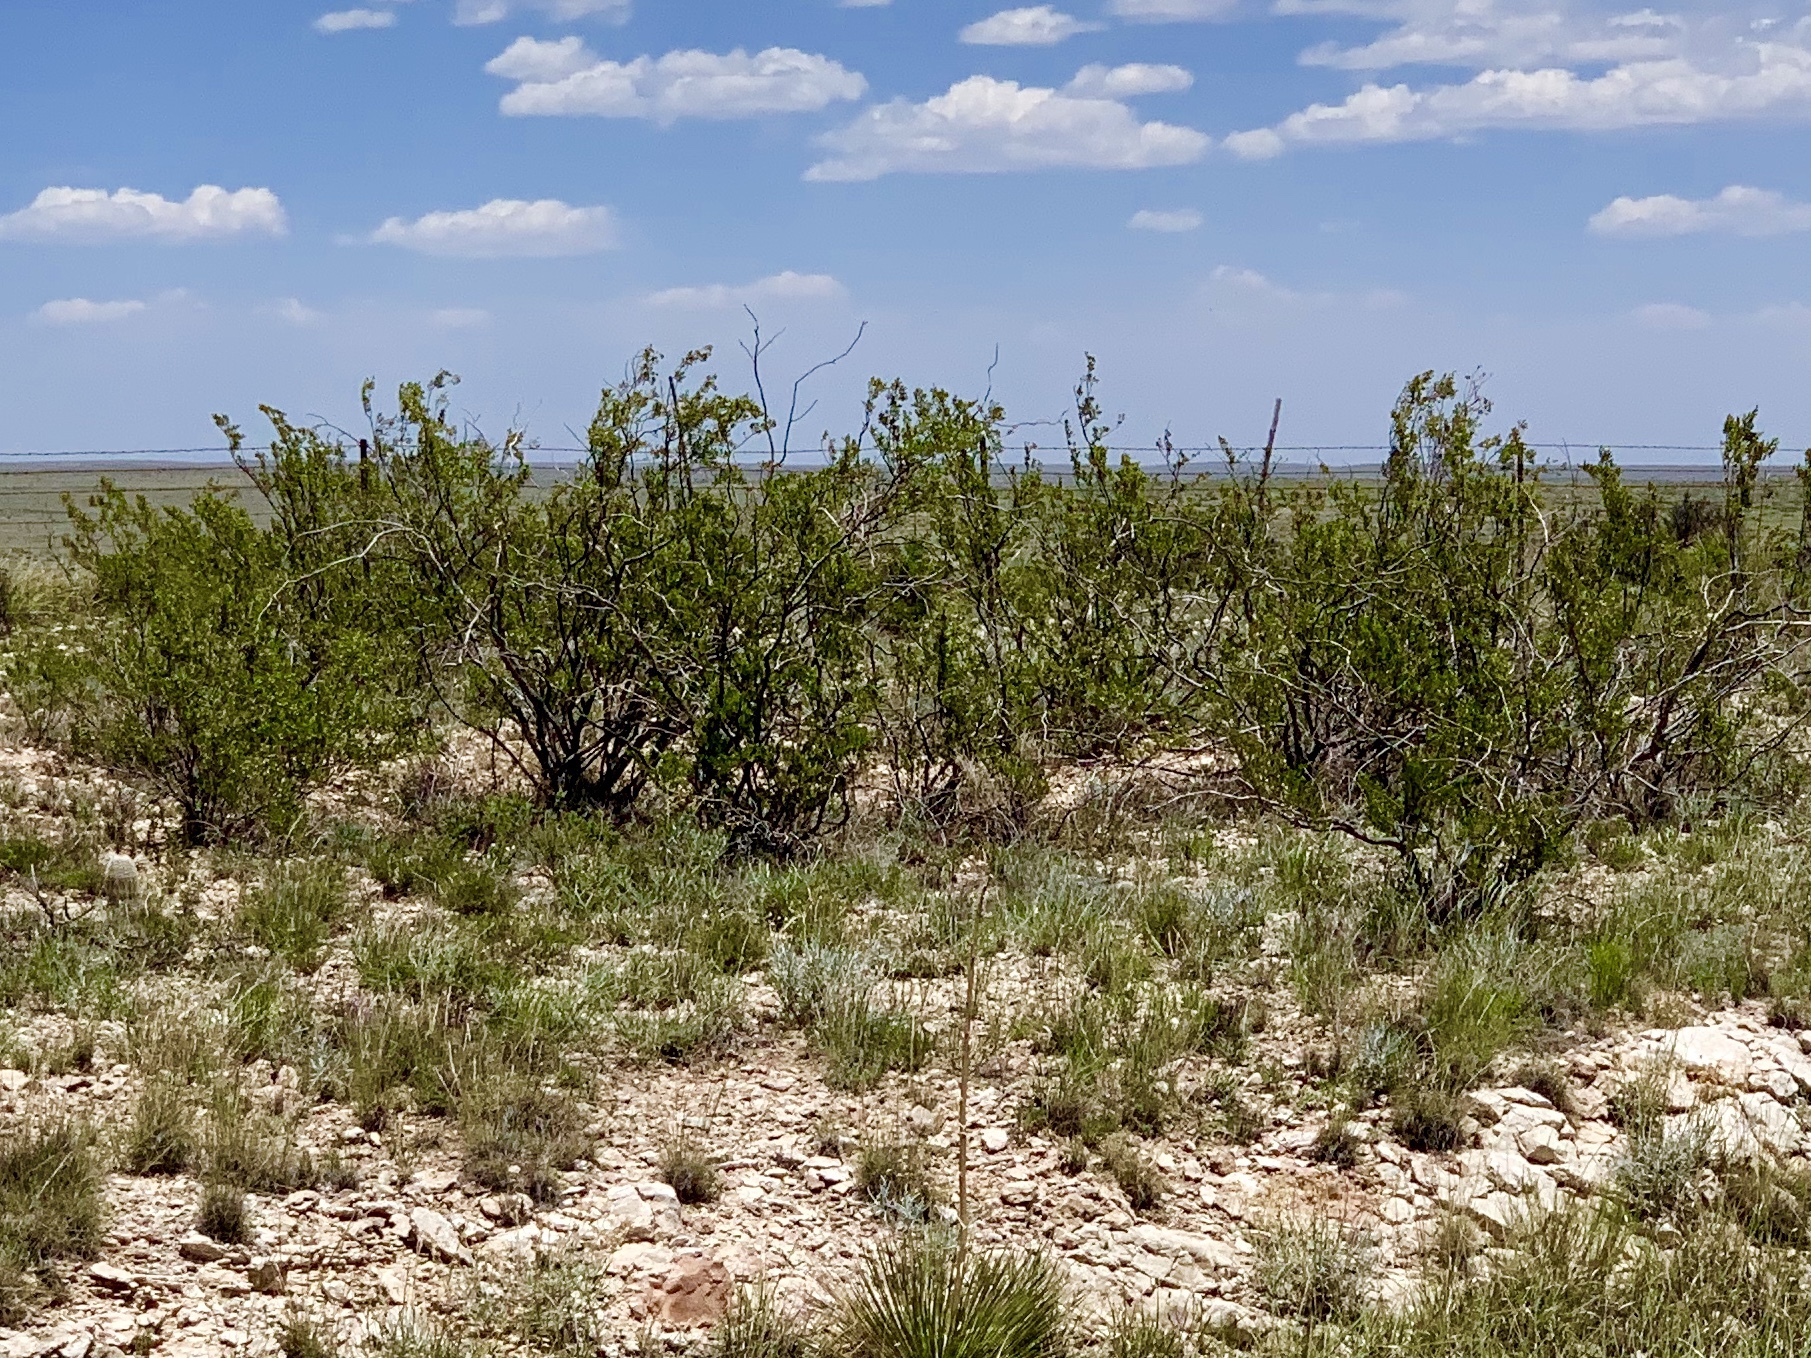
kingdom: Plantae
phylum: Tracheophyta
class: Magnoliopsida
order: Zygophyllales
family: Zygophyllaceae
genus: Larrea
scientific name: Larrea tridentata
